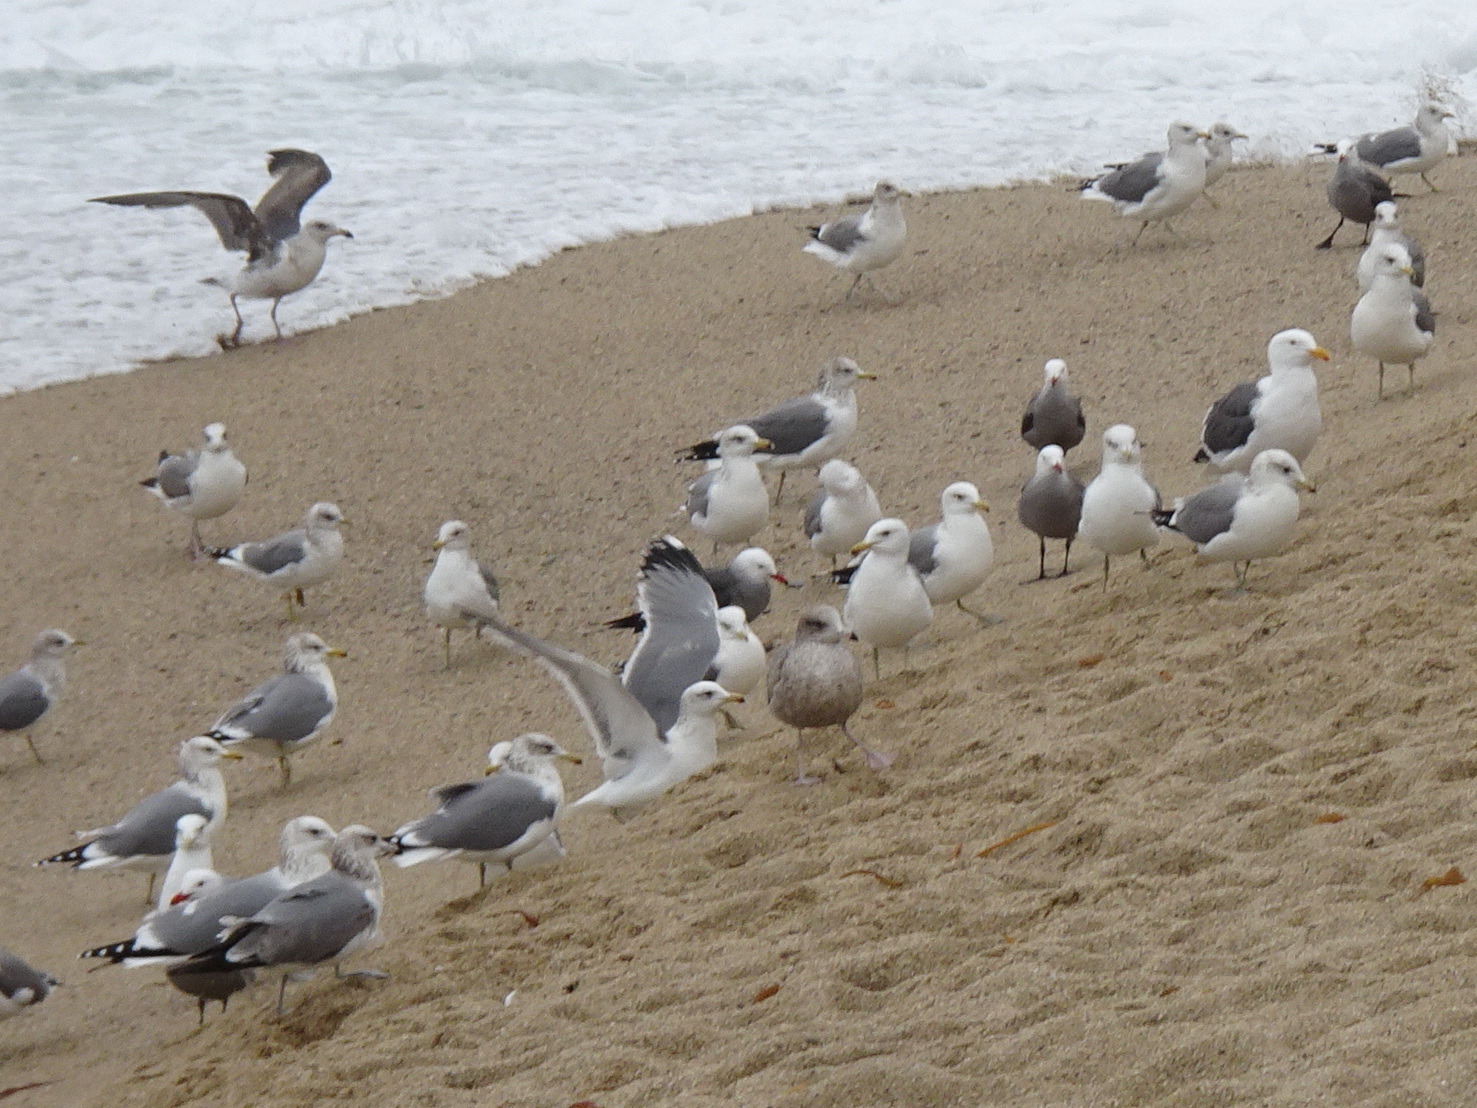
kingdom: Animalia
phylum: Chordata
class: Aves
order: Charadriiformes
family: Laridae
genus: Larus
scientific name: Larus californicus
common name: California gull
